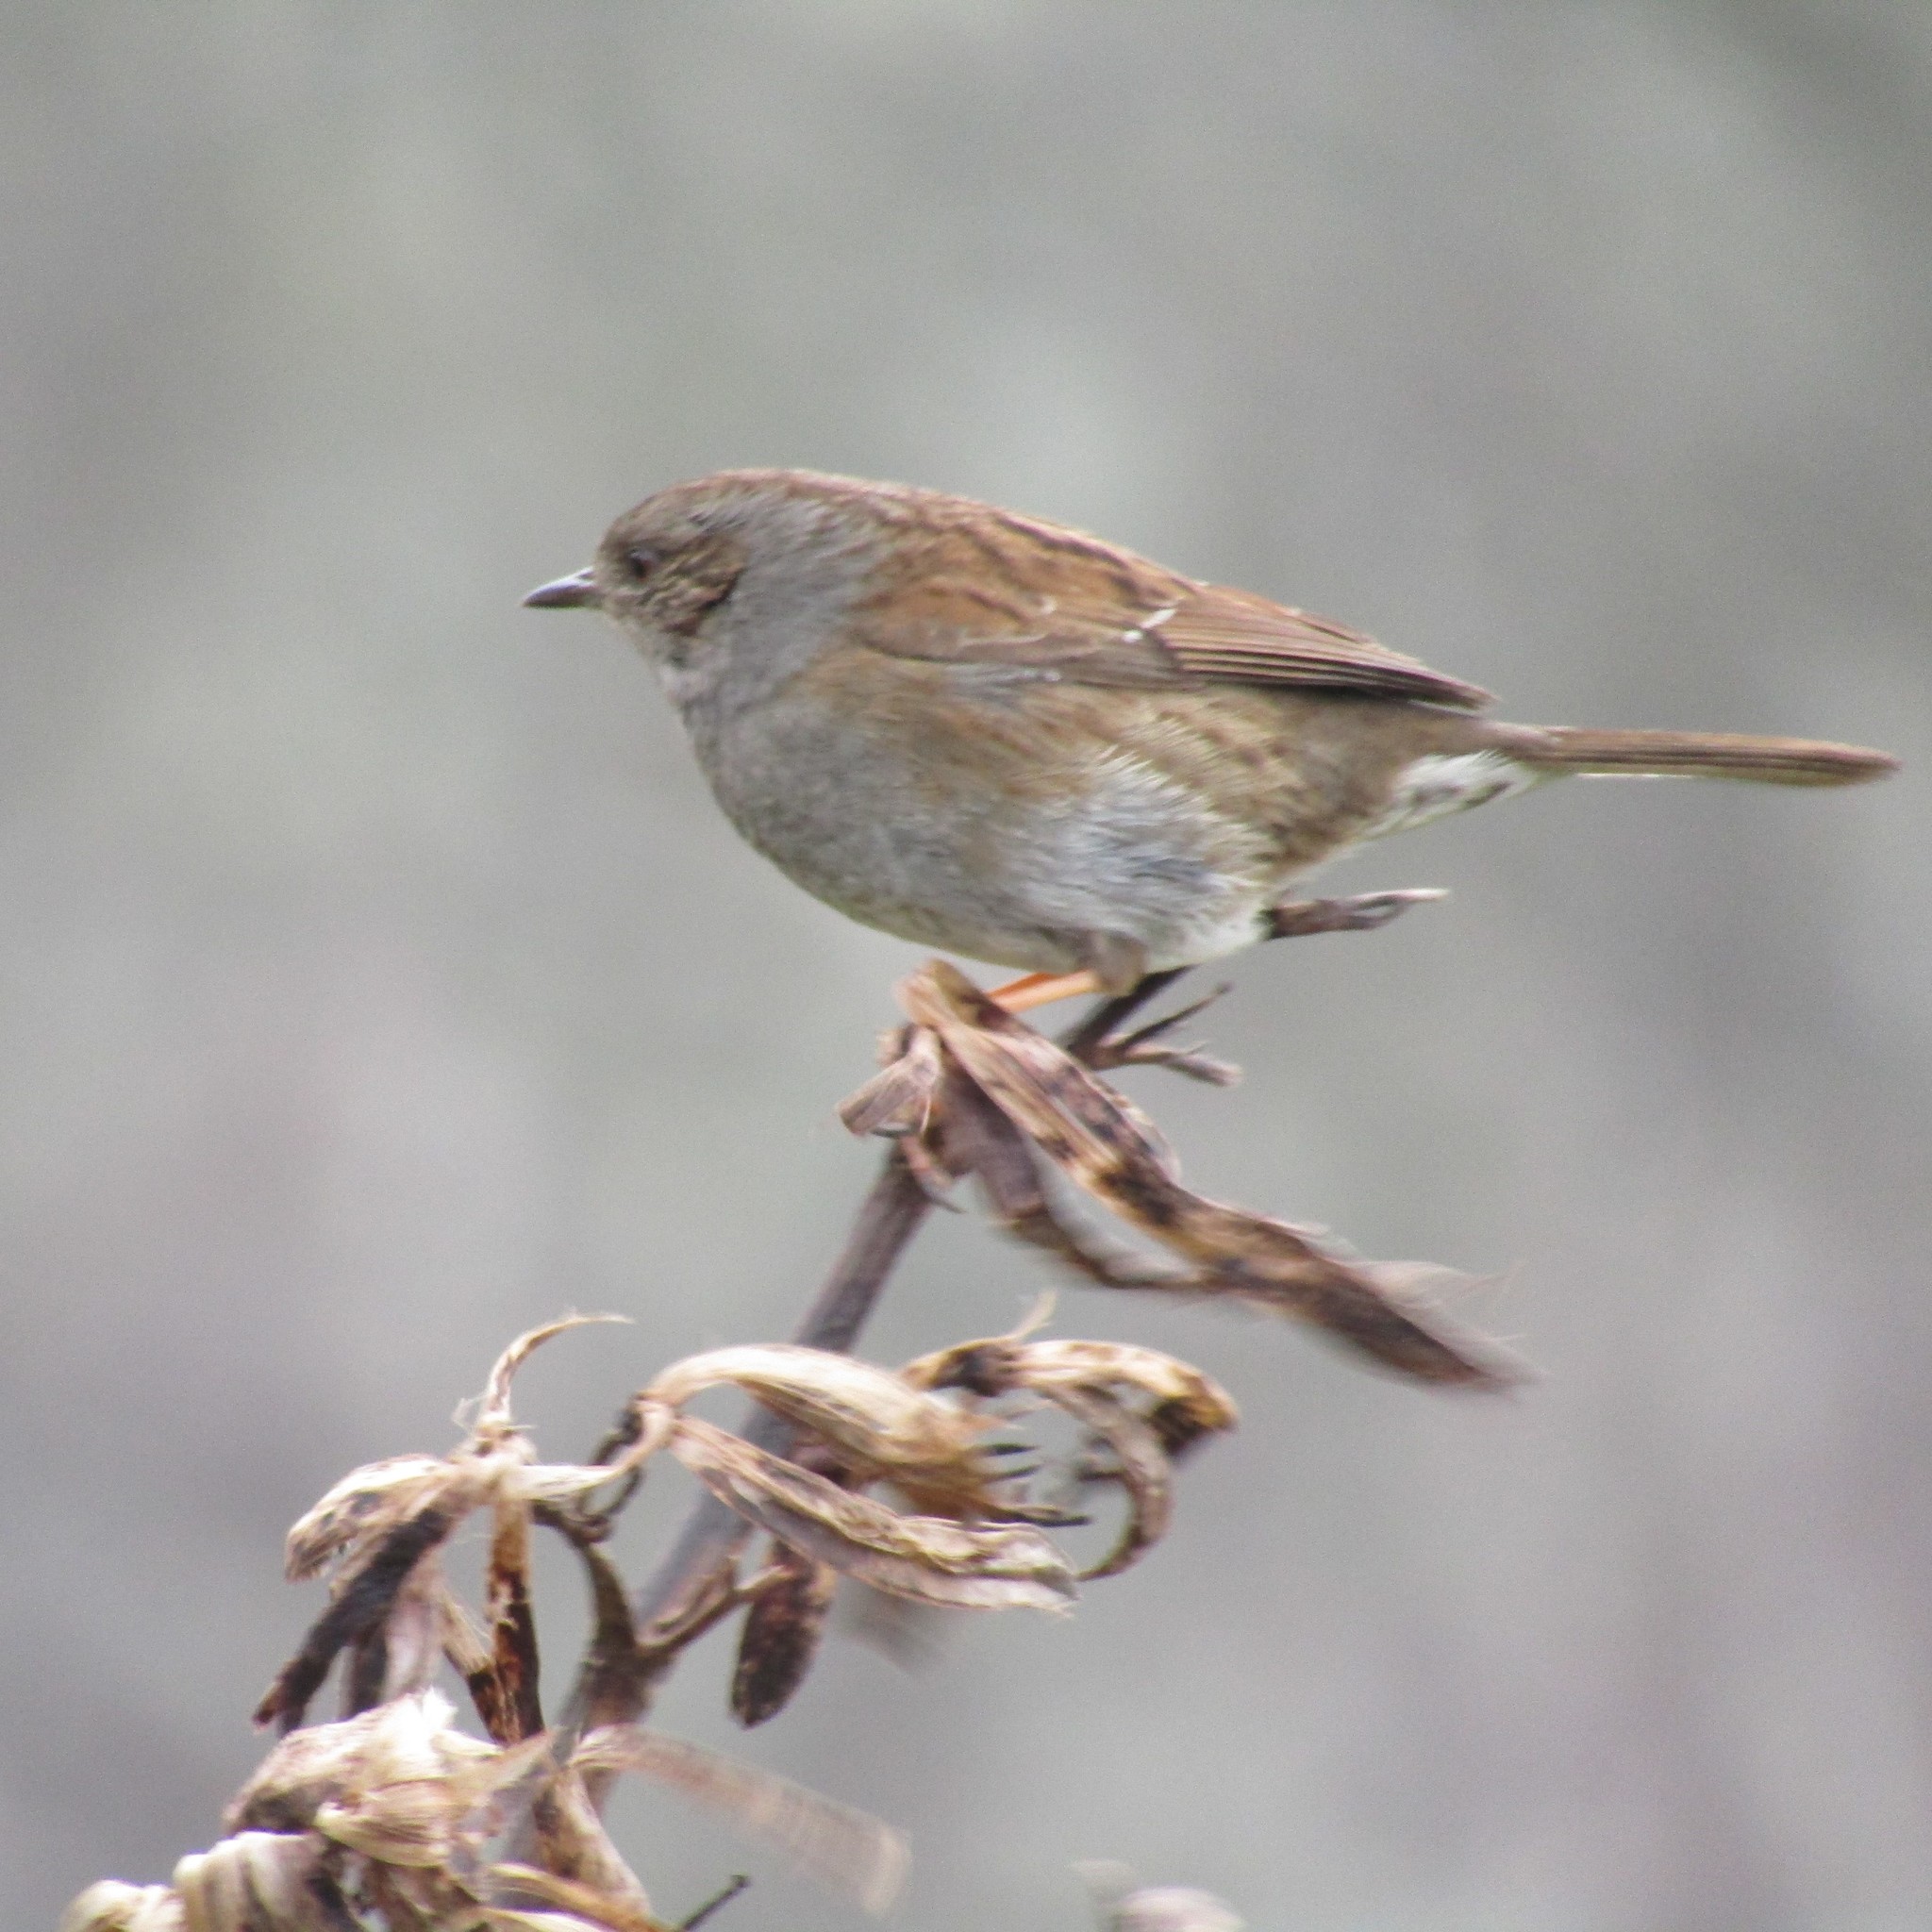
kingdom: Animalia
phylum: Chordata
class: Aves
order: Passeriformes
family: Prunellidae
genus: Prunella
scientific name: Prunella modularis
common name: Dunnock
